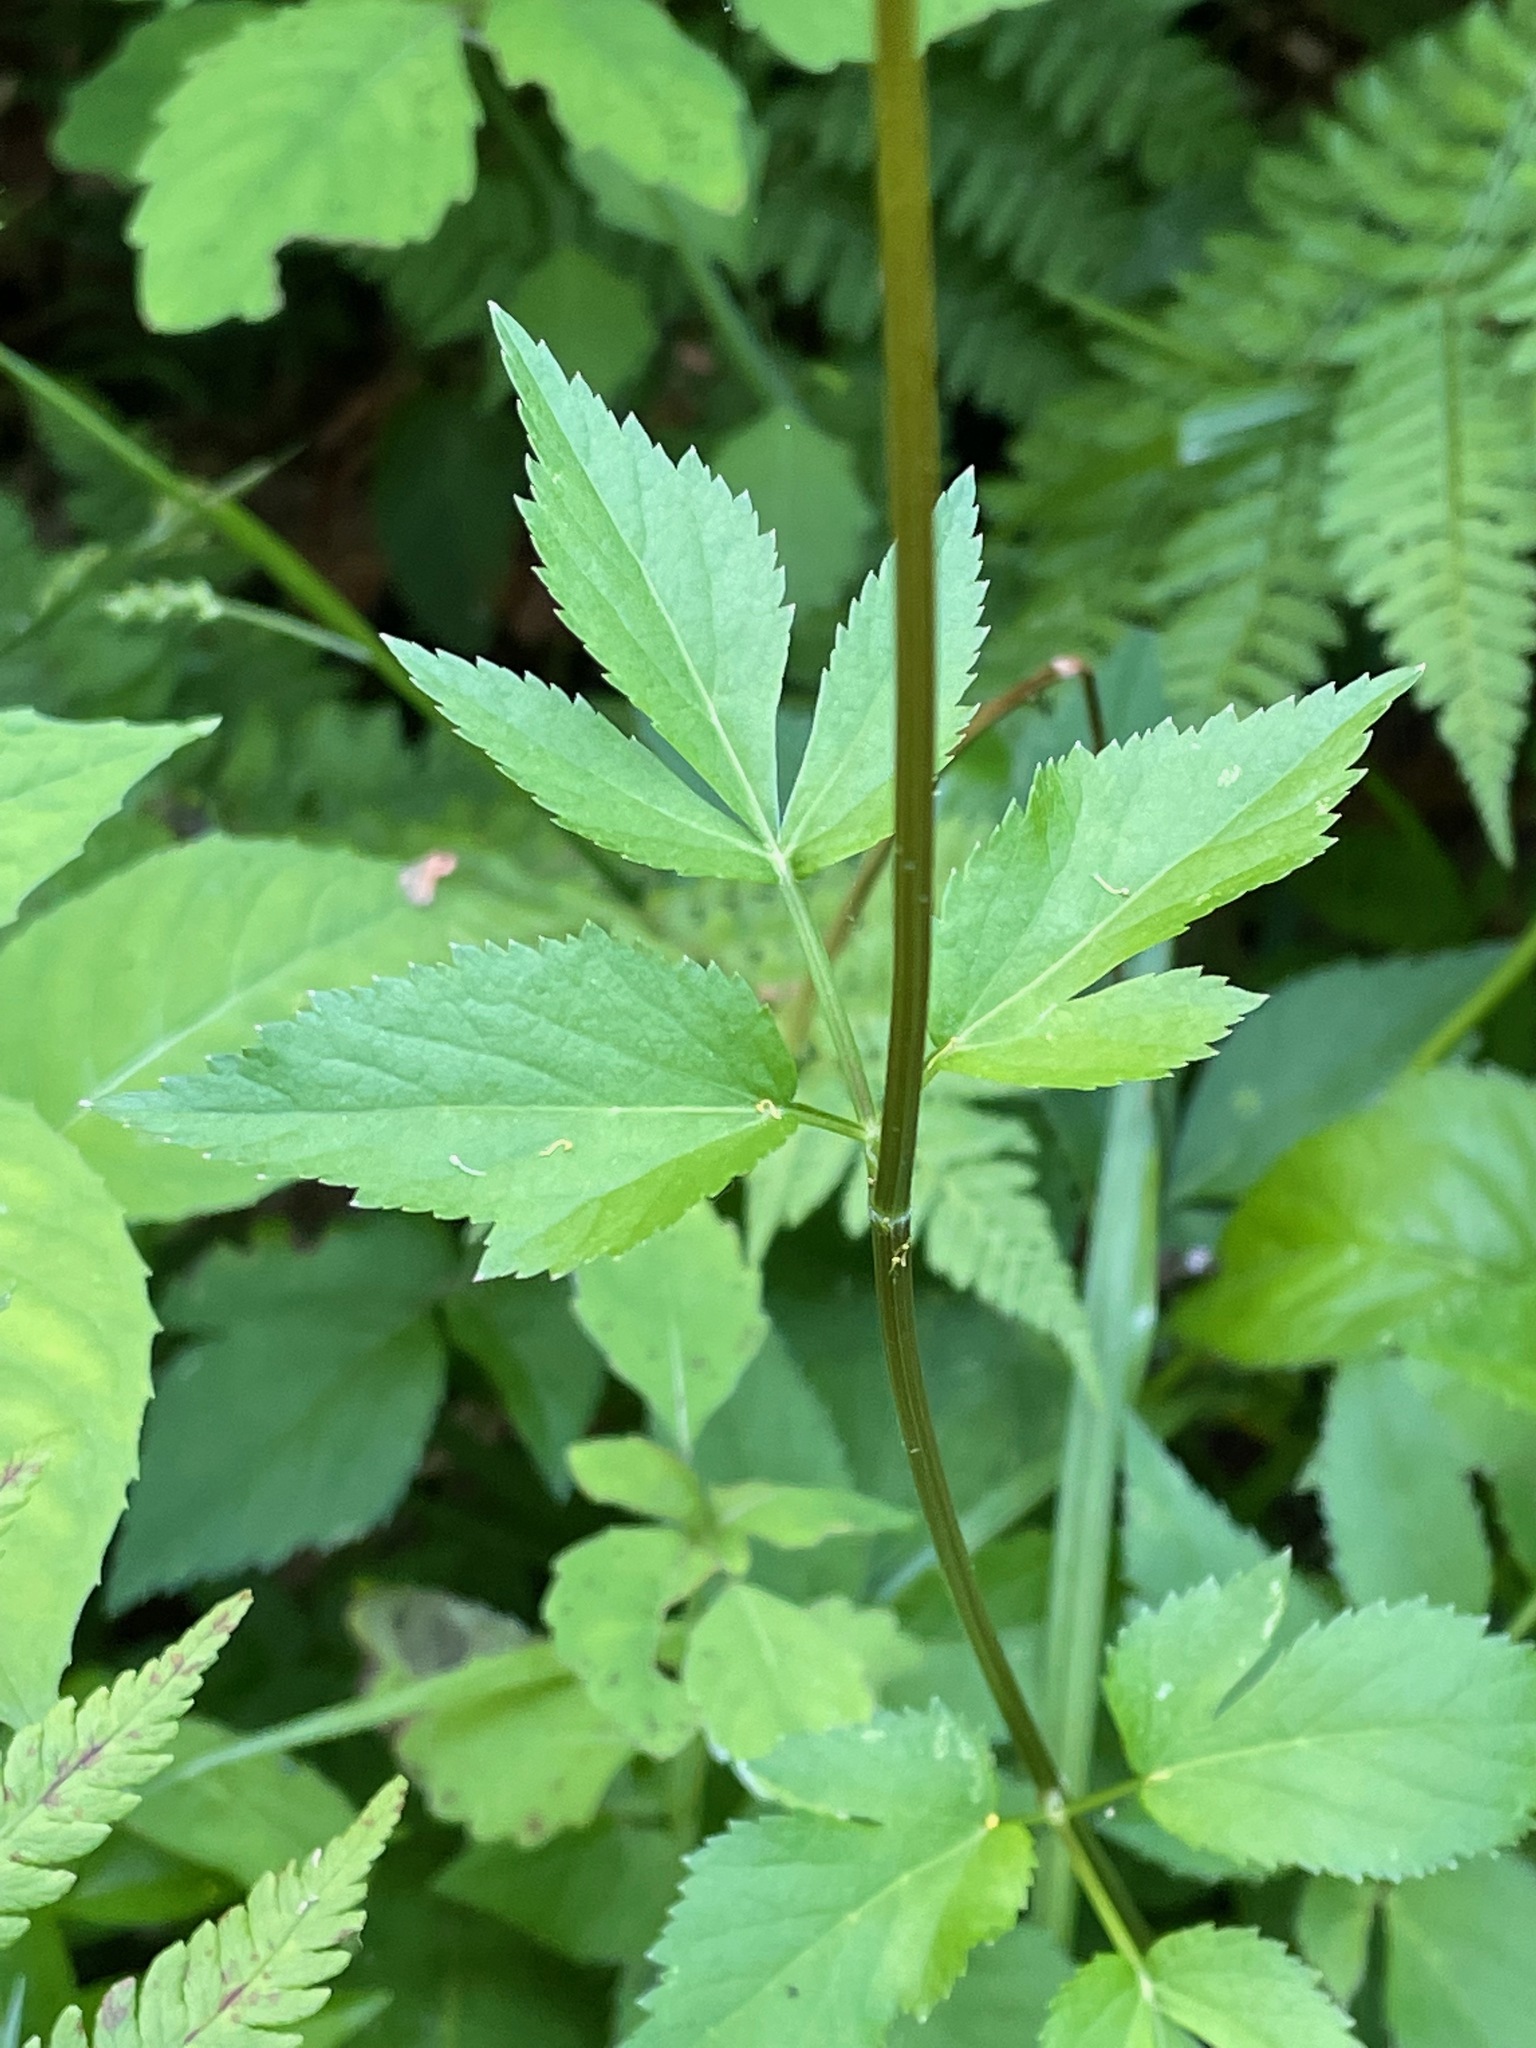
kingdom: Plantae
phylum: Tracheophyta
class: Magnoliopsida
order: Apiales
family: Apiaceae
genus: Zizia
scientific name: Zizia aurea
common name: Golden alexanders
